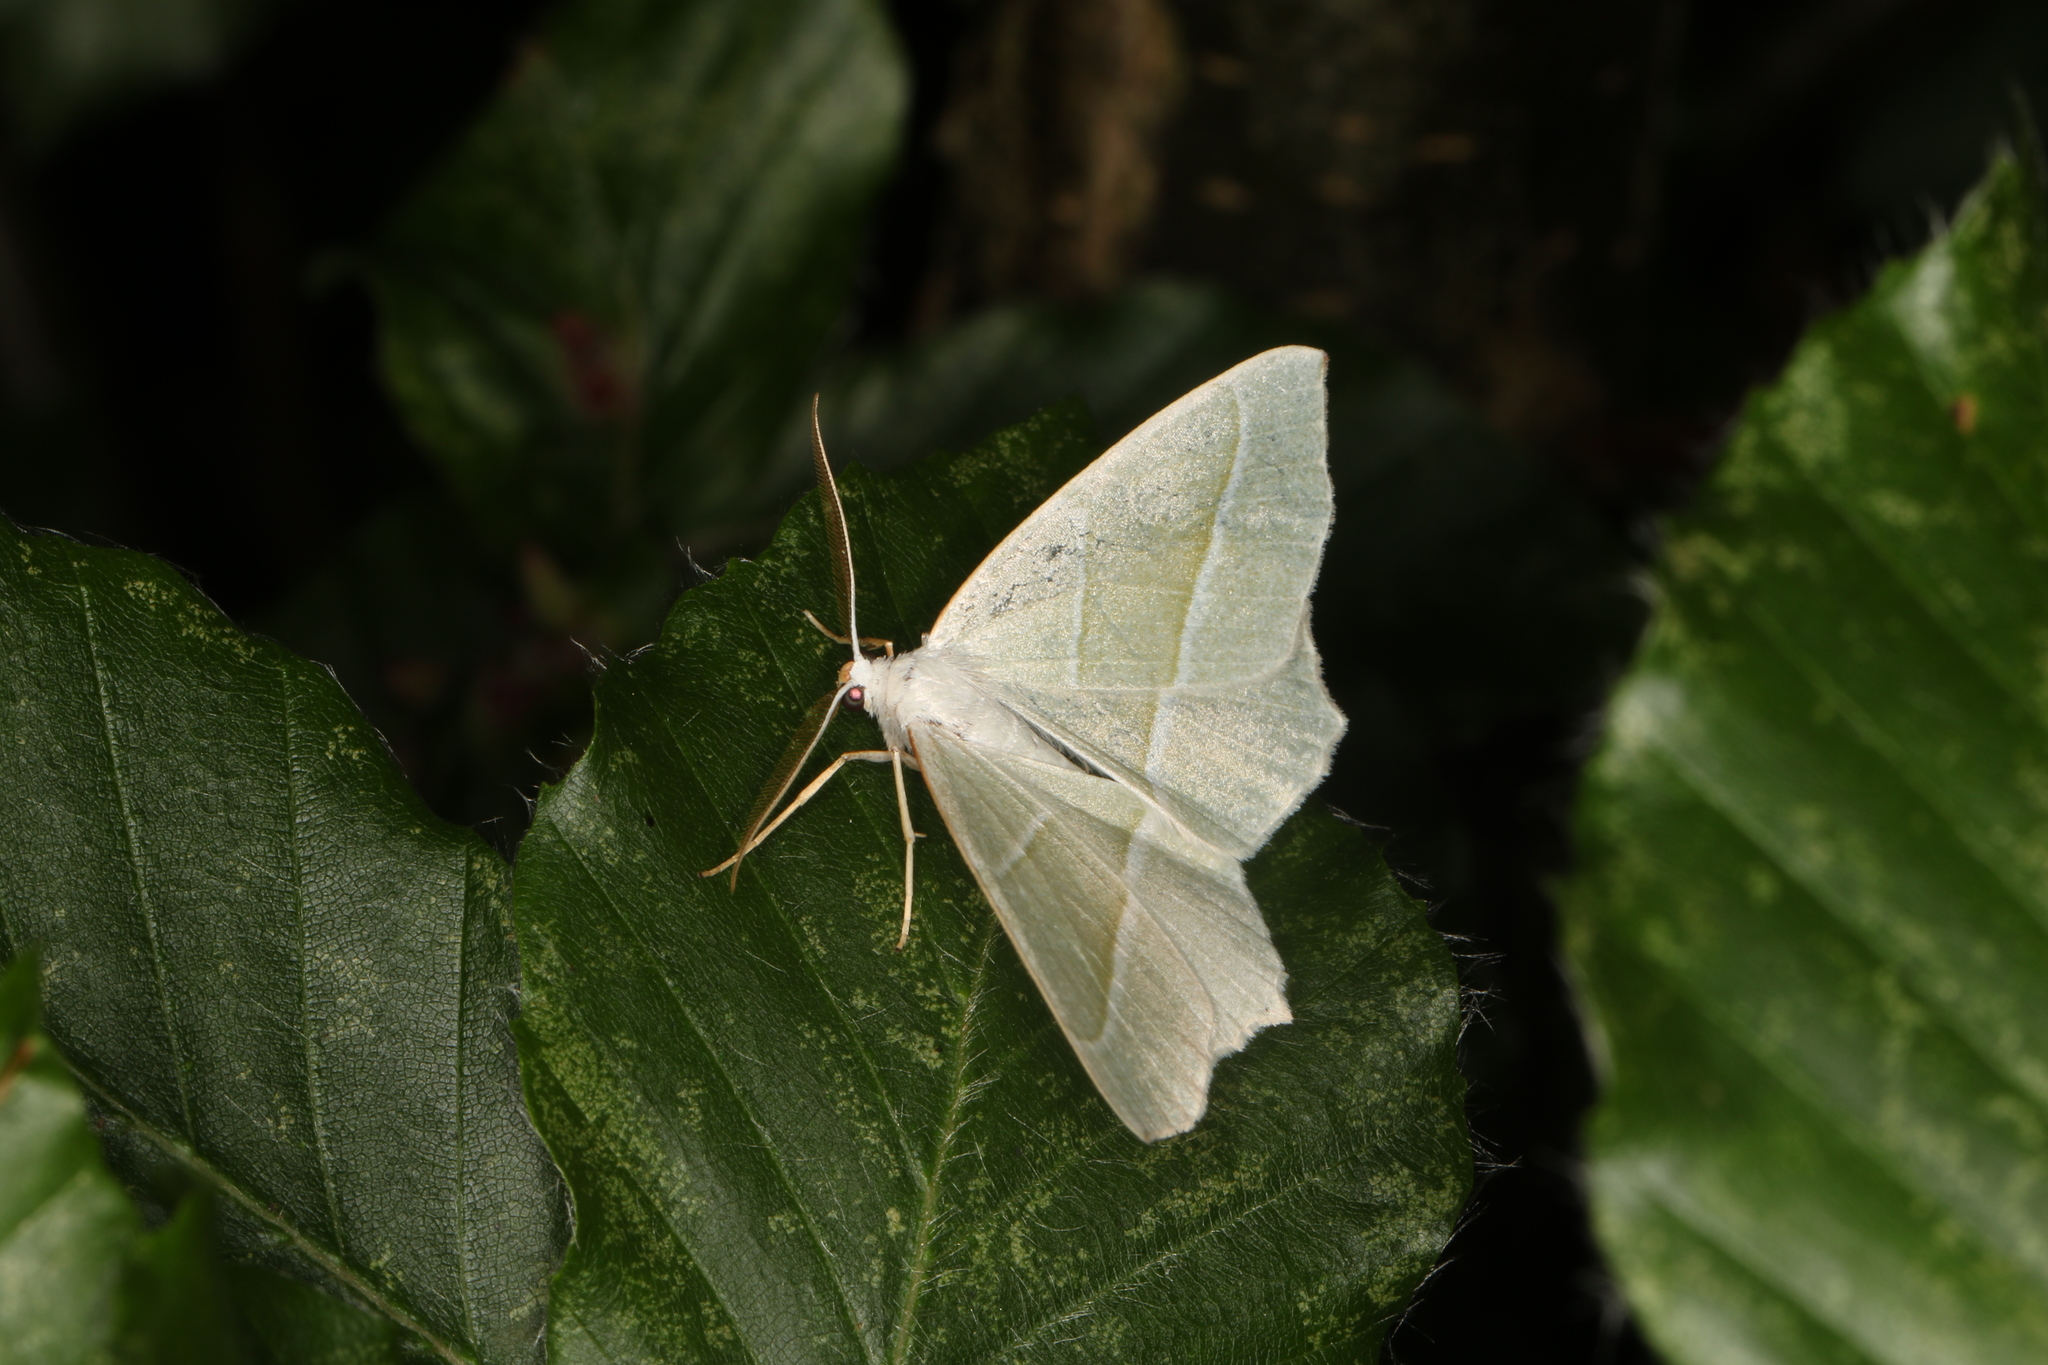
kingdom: Animalia
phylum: Arthropoda
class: Insecta
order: Lepidoptera
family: Geometridae
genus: Campaea
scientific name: Campaea margaritaria
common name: Light emerald
